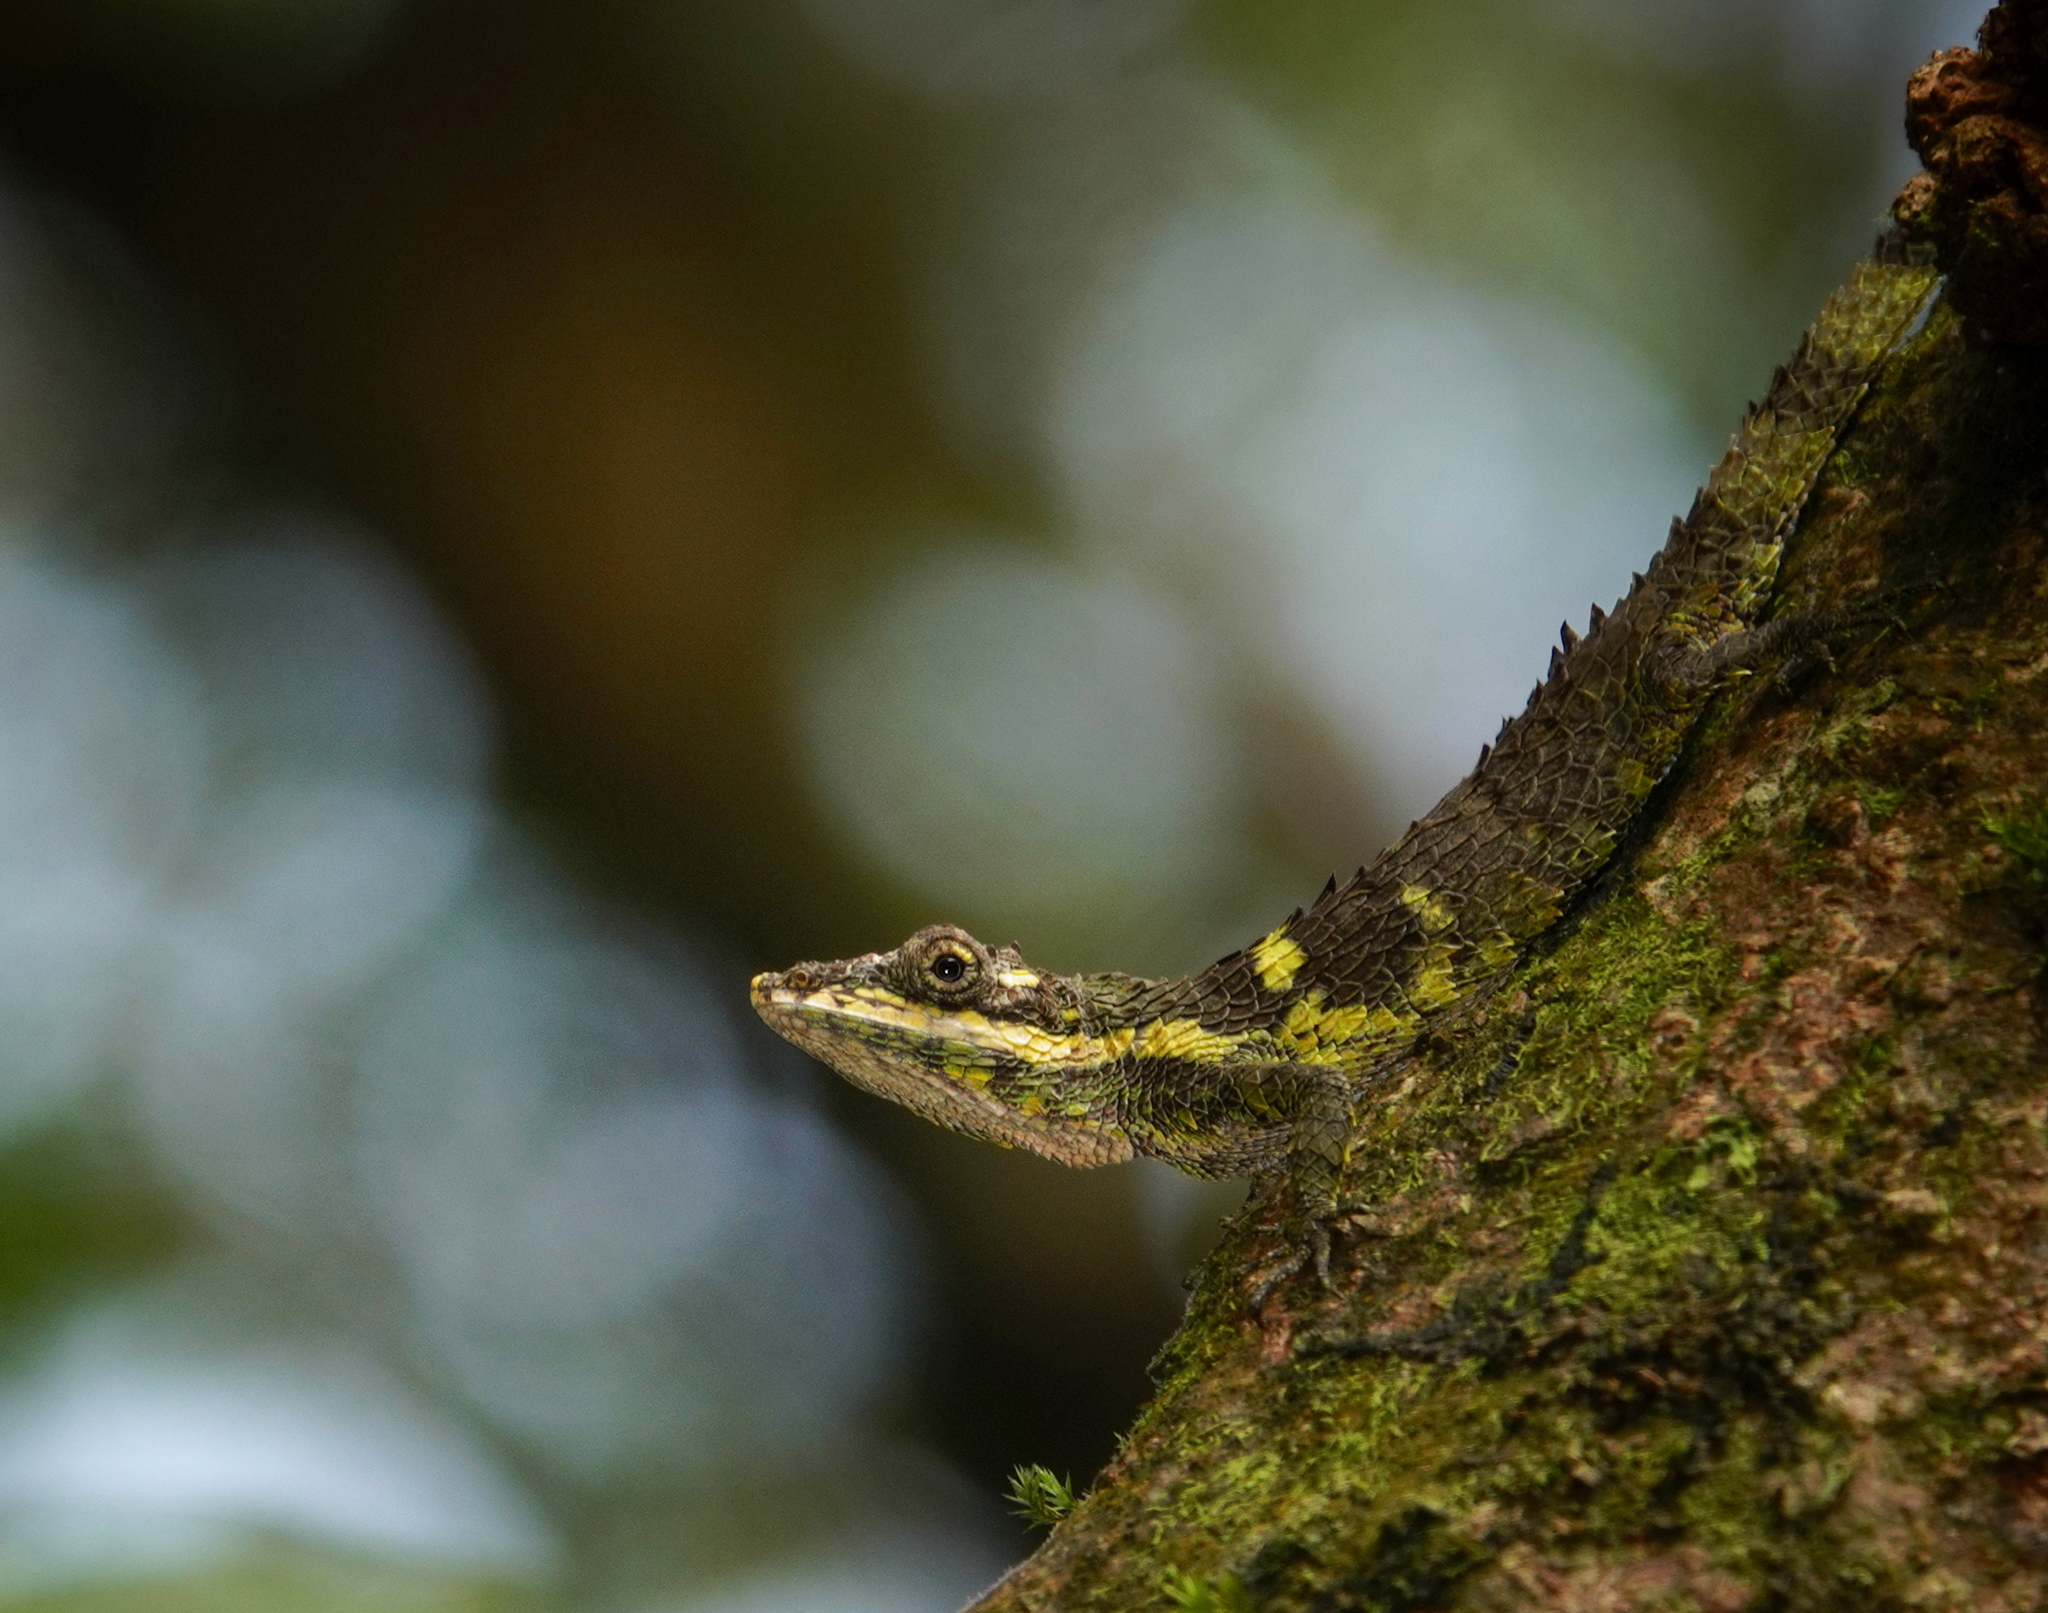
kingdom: Animalia
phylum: Chordata
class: Squamata
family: Agamidae
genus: Cophotis
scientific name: Cophotis dumbara
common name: Dumbara agama
